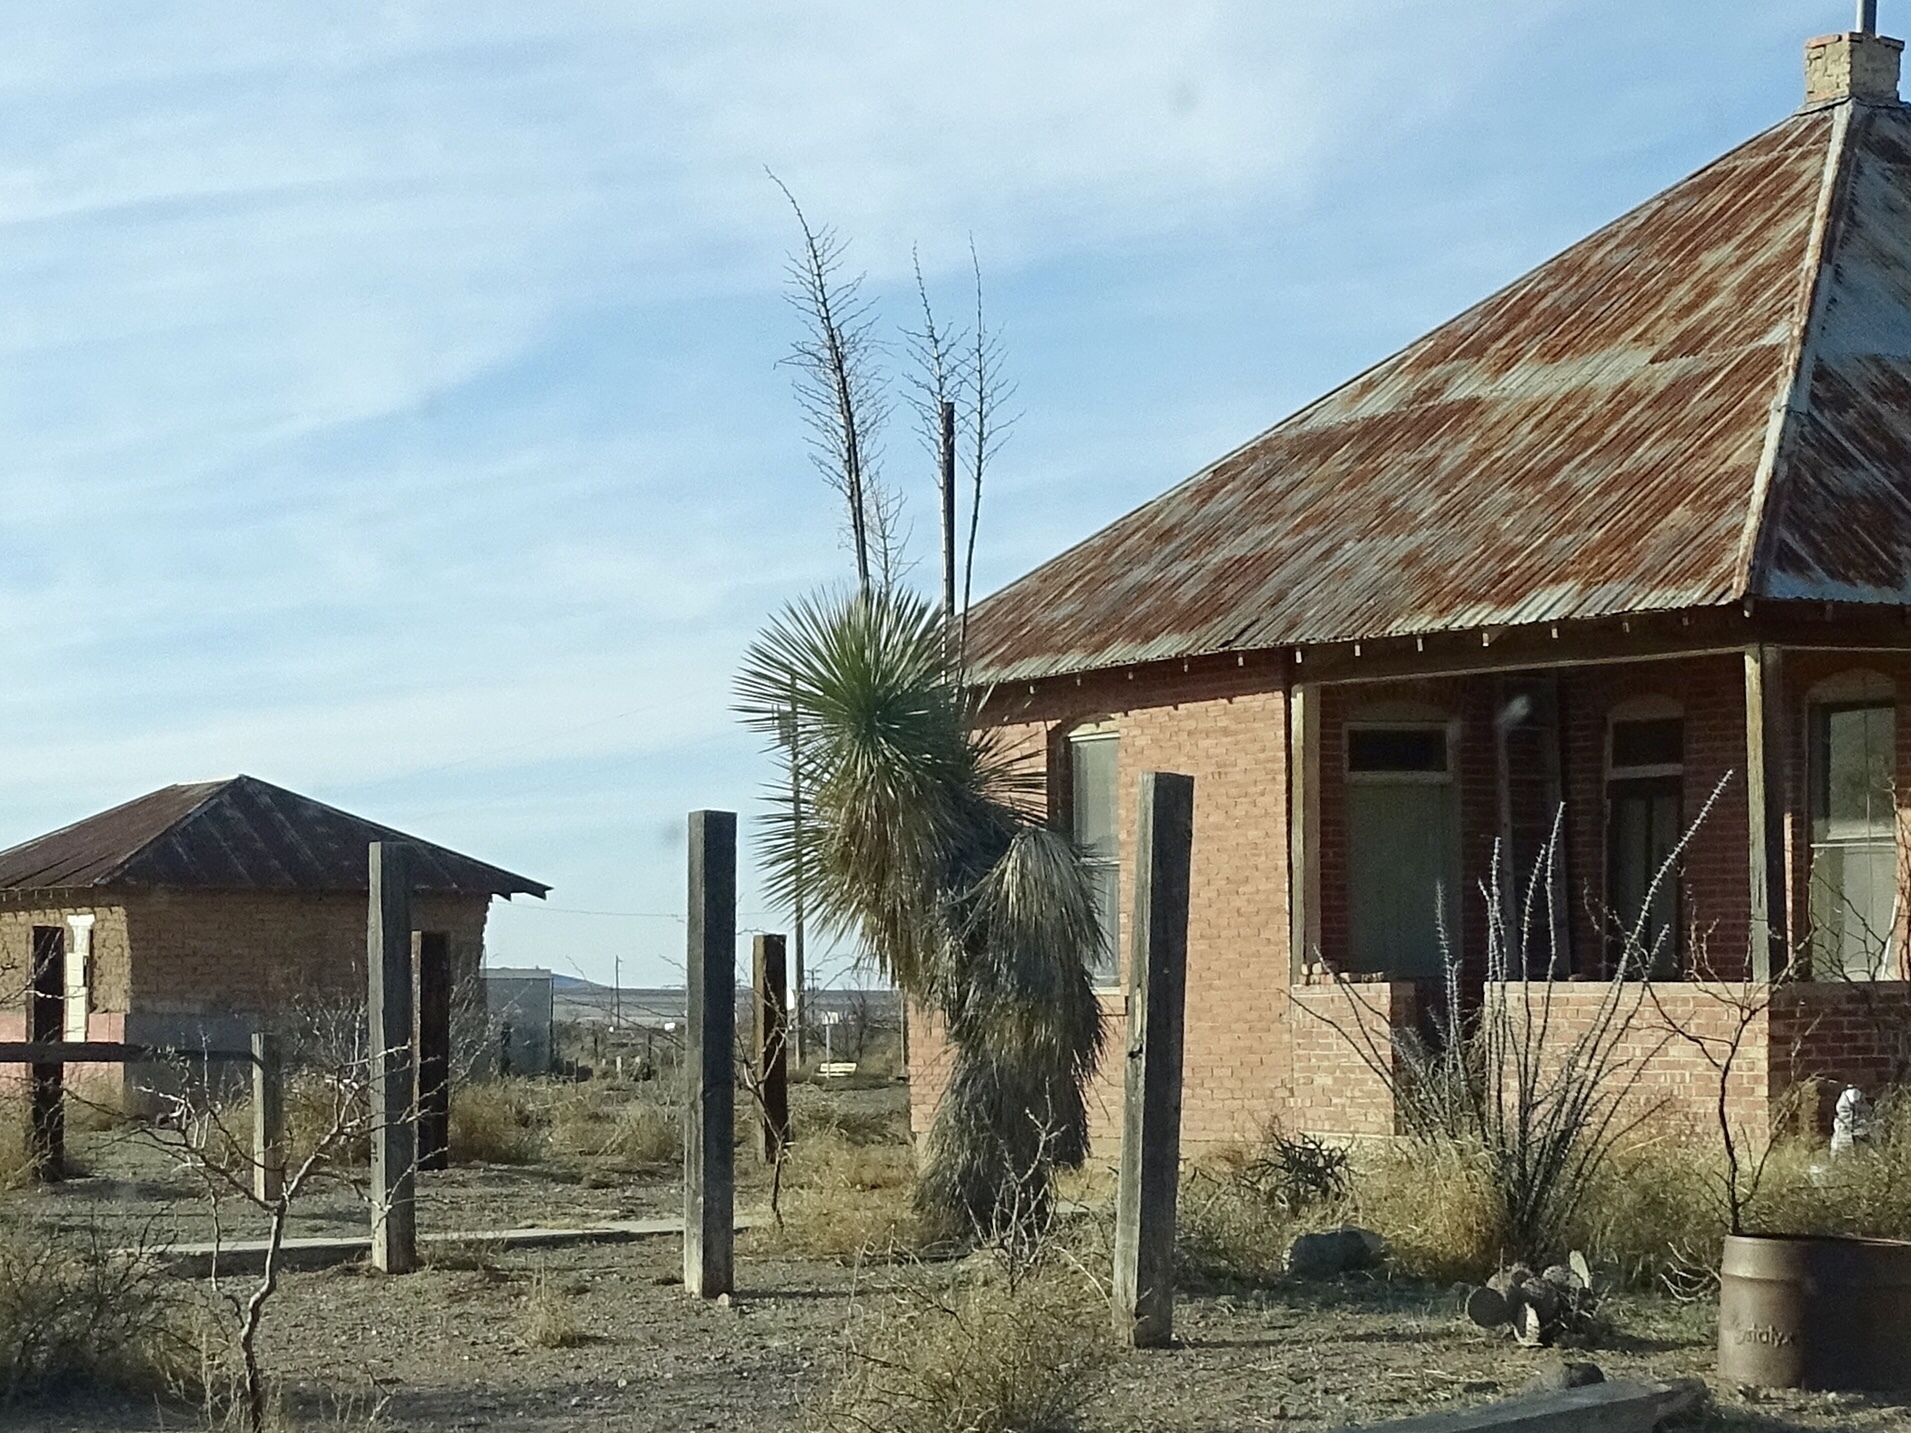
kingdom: Plantae
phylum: Tracheophyta
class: Liliopsida
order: Asparagales
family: Asparagaceae
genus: Yucca
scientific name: Yucca elata
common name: Palmella
